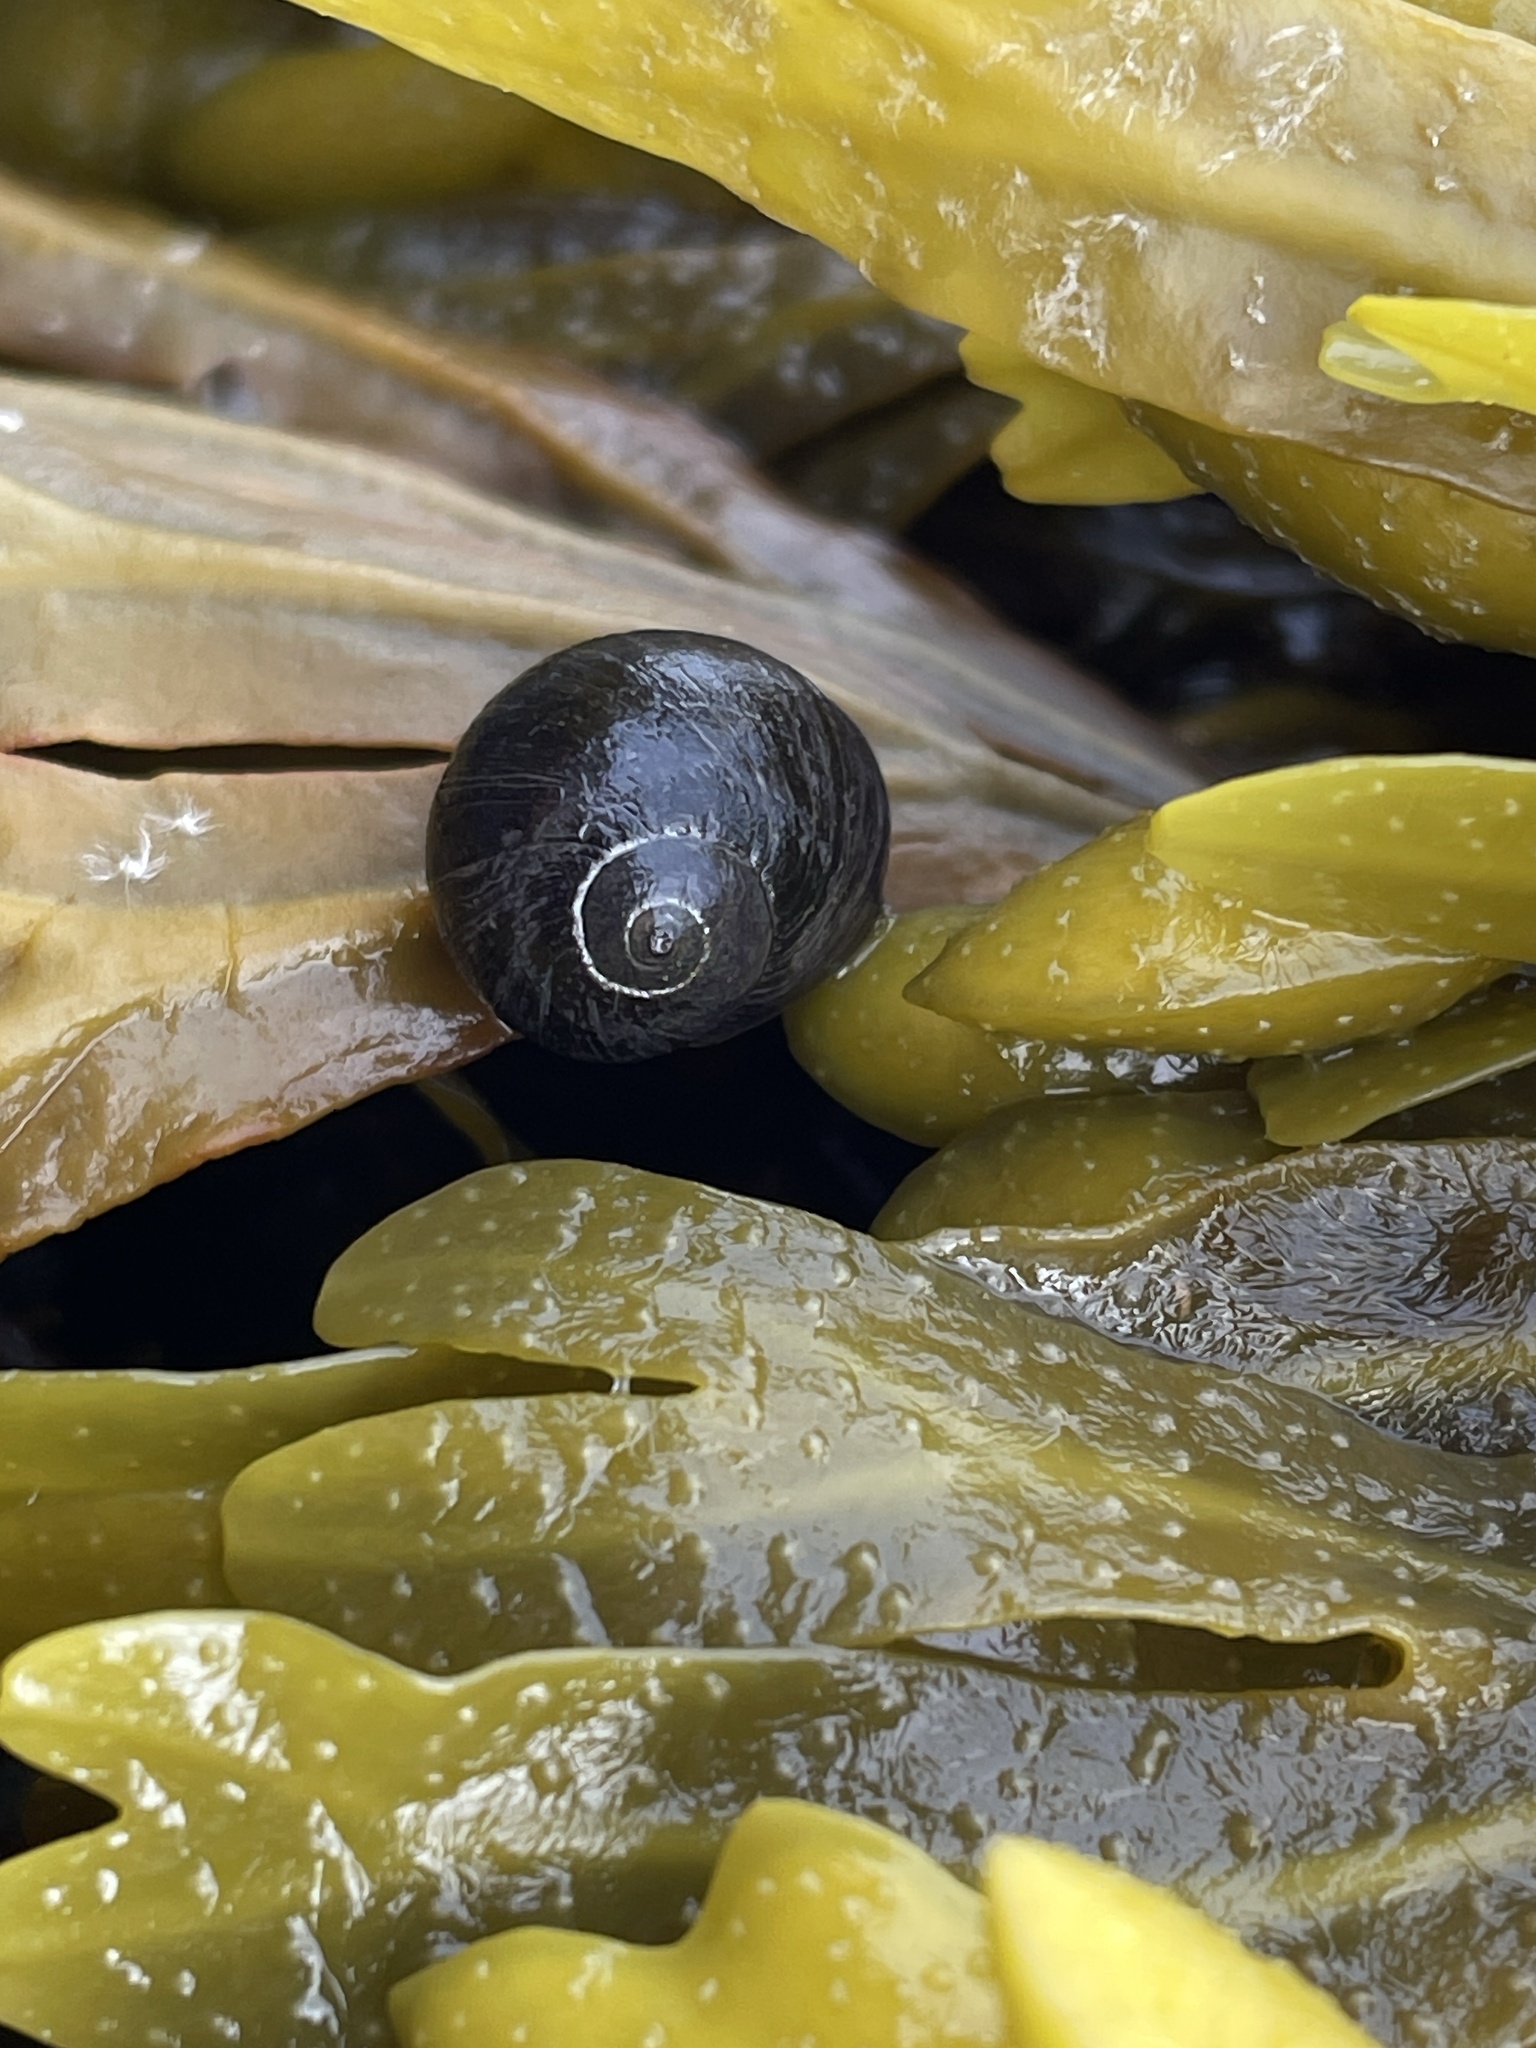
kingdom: Animalia
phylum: Mollusca
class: Gastropoda
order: Littorinimorpha
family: Littorinidae
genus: Littorina
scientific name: Littorina obtusata
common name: Flat periwinkle
